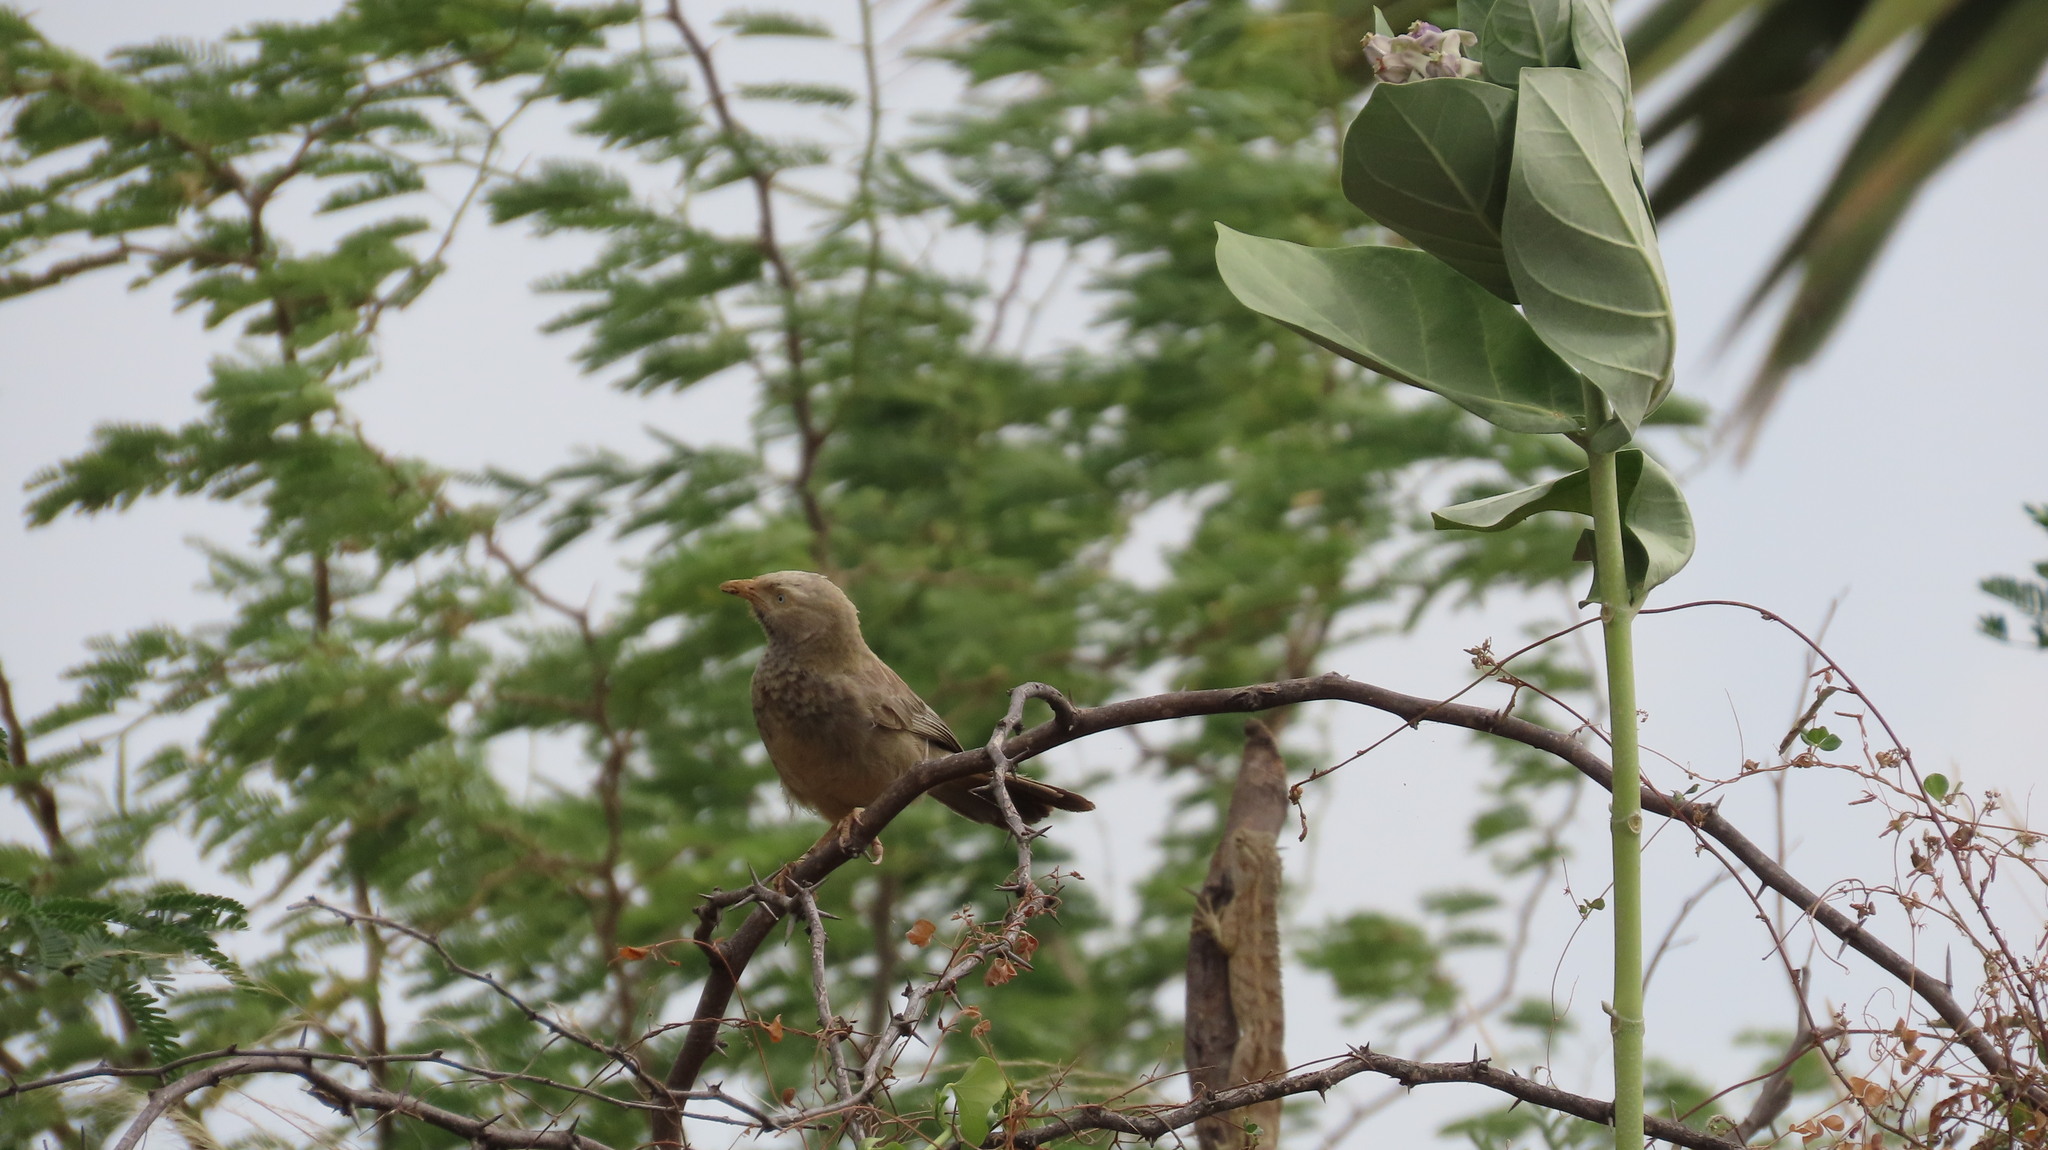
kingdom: Animalia
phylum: Chordata
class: Aves
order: Passeriformes
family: Leiothrichidae
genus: Turdoides
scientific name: Turdoides affinis
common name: Yellow-billed babbler
